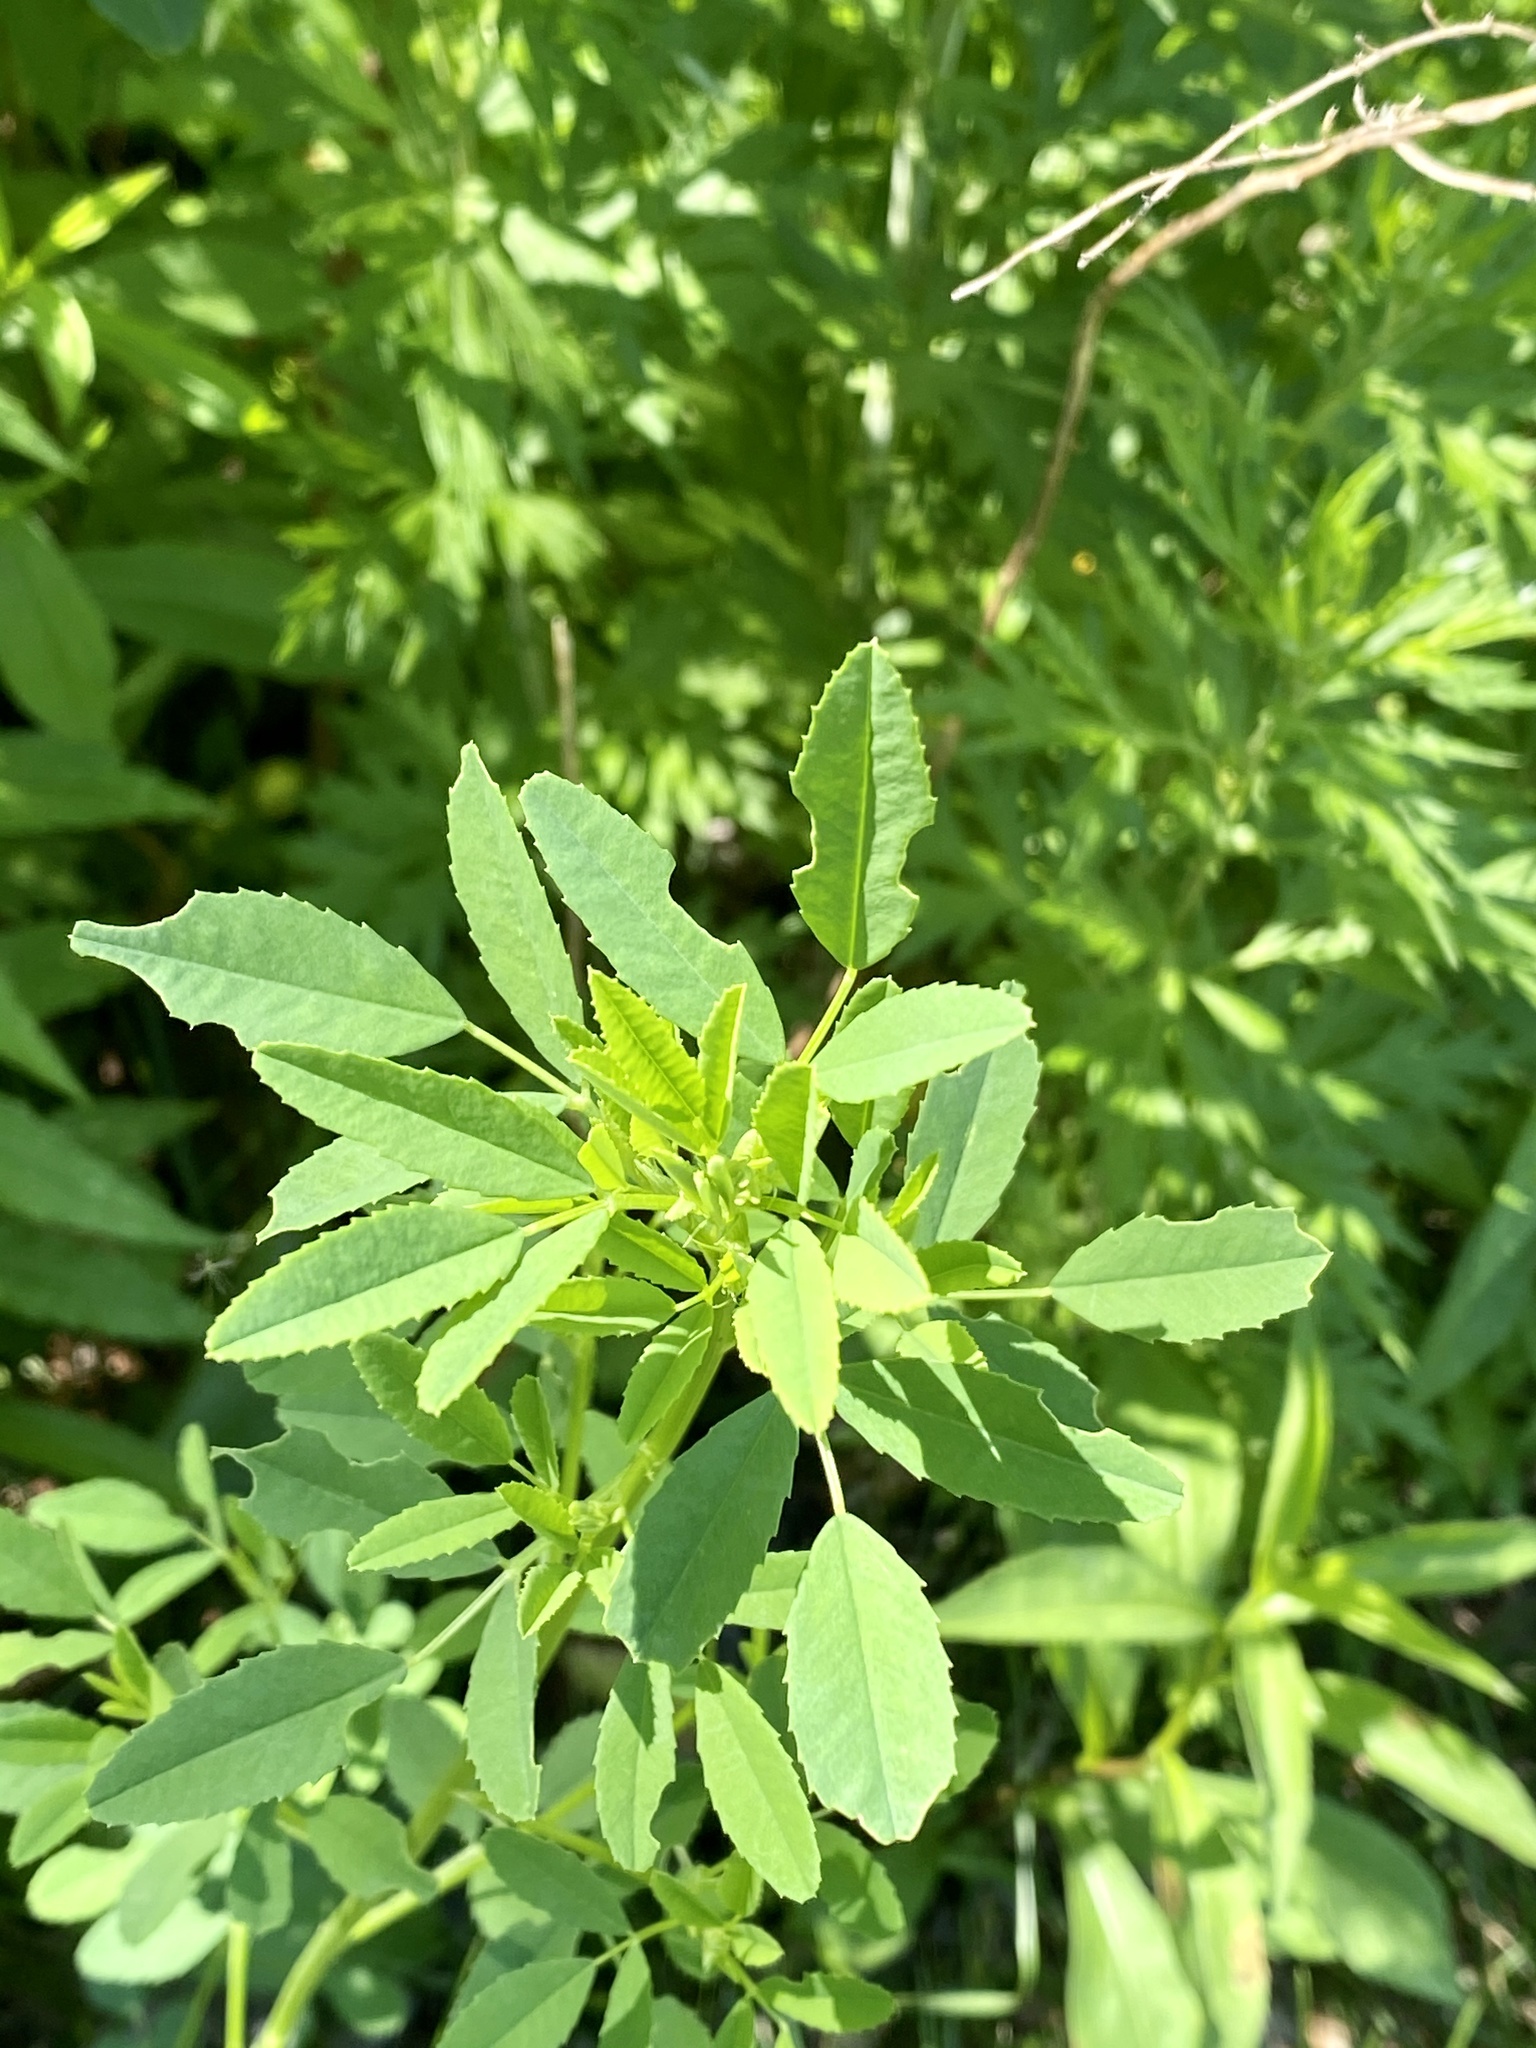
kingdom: Plantae
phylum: Tracheophyta
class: Magnoliopsida
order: Fabales
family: Fabaceae
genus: Melilotus
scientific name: Melilotus
